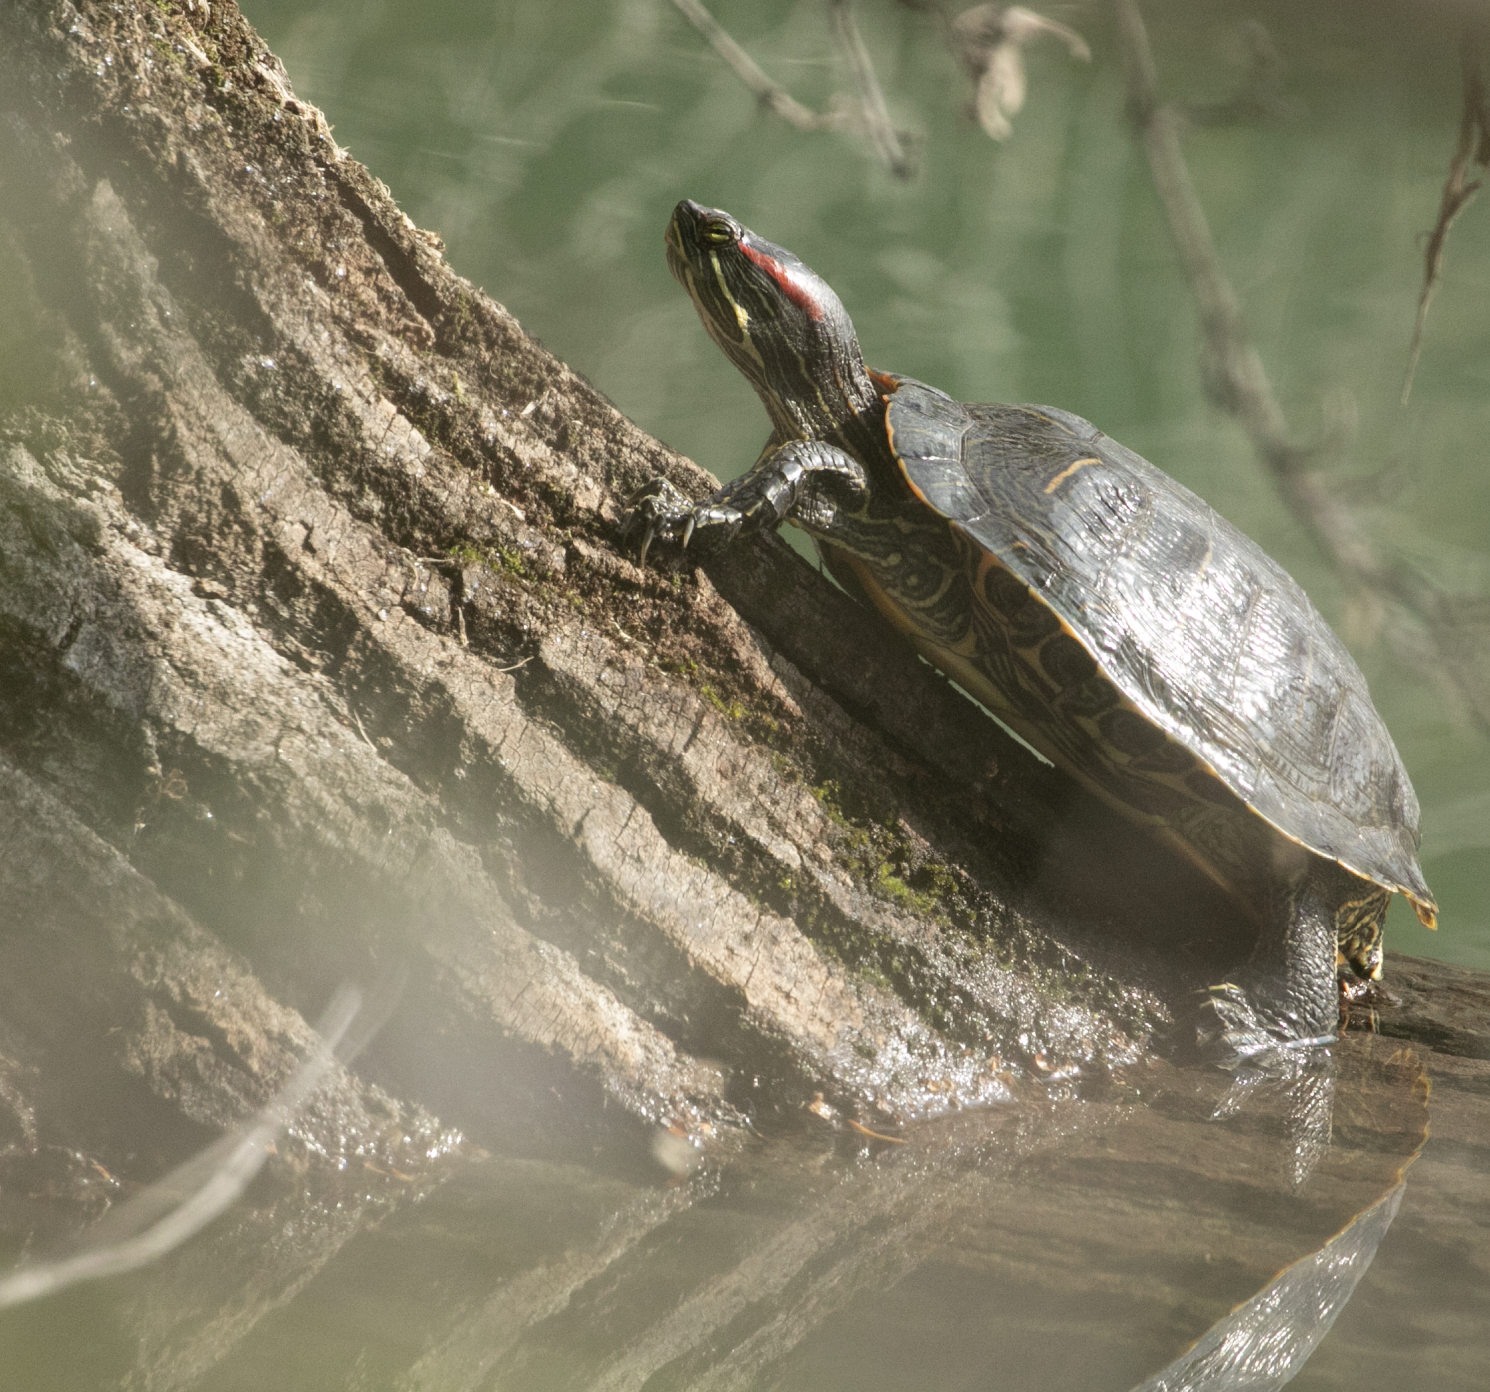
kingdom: Animalia
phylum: Chordata
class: Testudines
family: Emydidae
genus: Trachemys
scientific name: Trachemys scripta
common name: Slider
